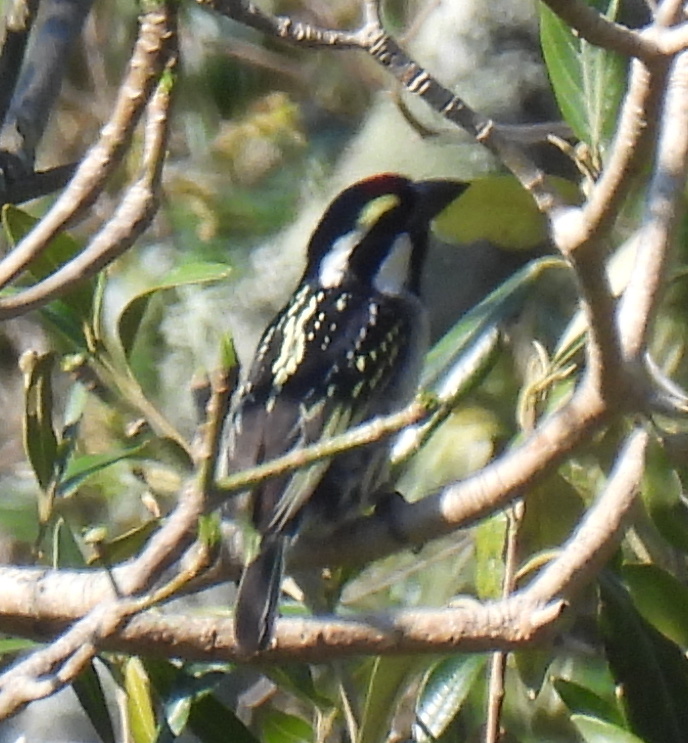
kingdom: Animalia
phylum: Chordata
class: Aves
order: Piciformes
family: Lybiidae
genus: Tricholaema
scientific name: Tricholaema leucomelas
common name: Acacia pied barbet
